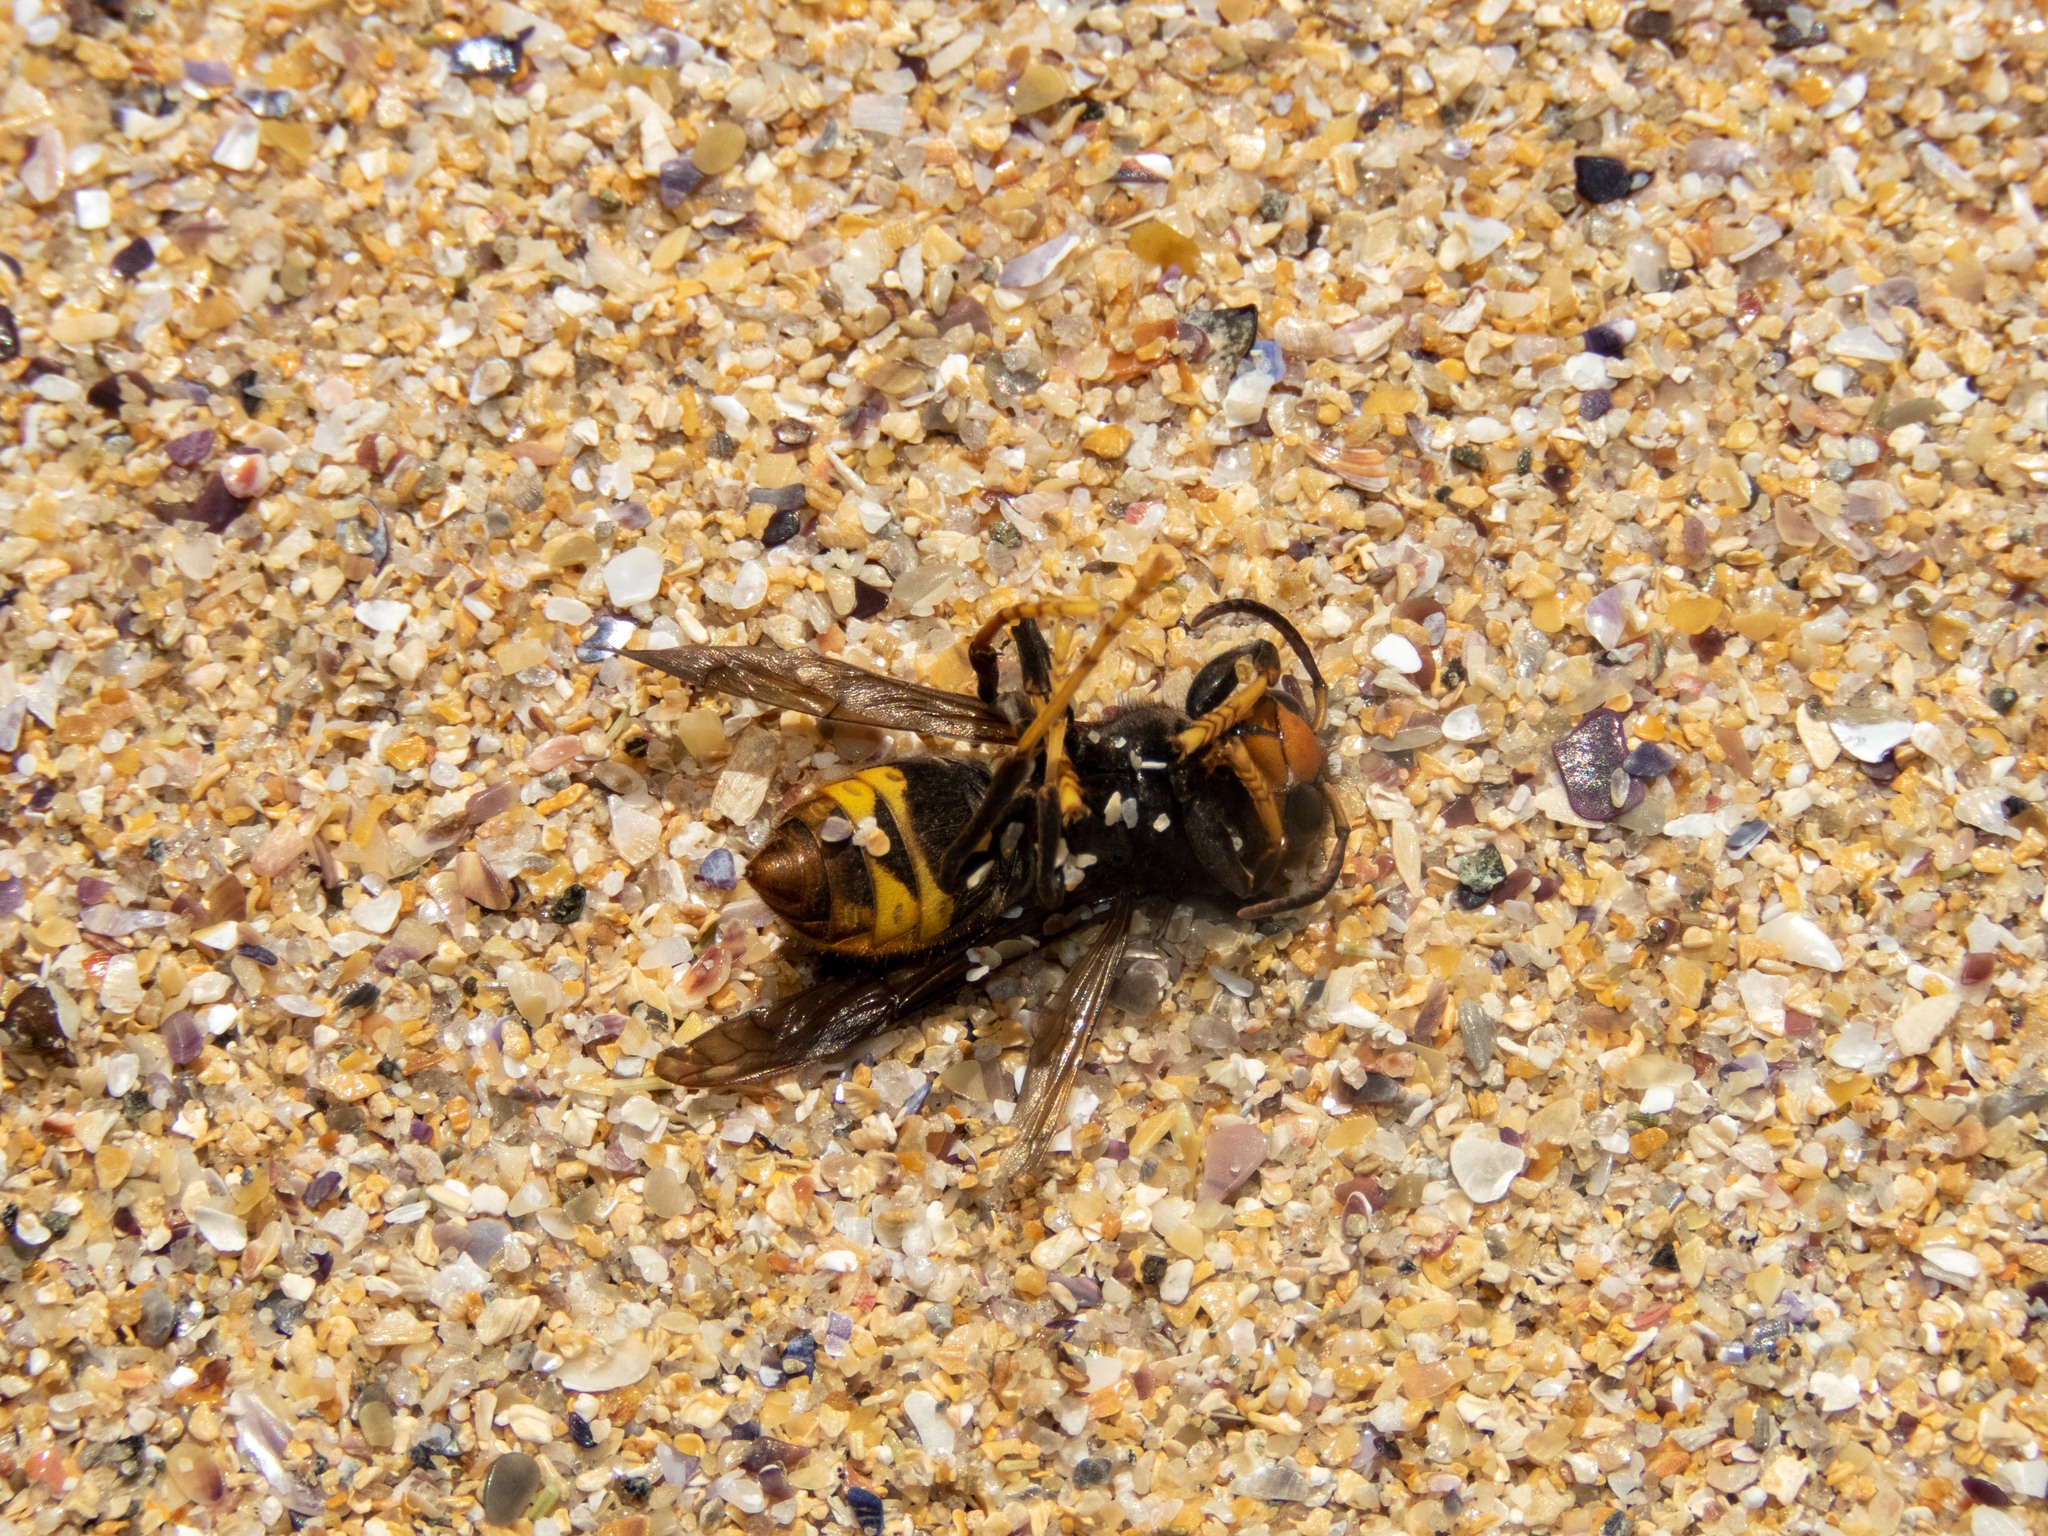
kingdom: Animalia
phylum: Arthropoda
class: Insecta
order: Hymenoptera
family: Vespidae
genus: Vespa
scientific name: Vespa velutina
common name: Asian hornet
